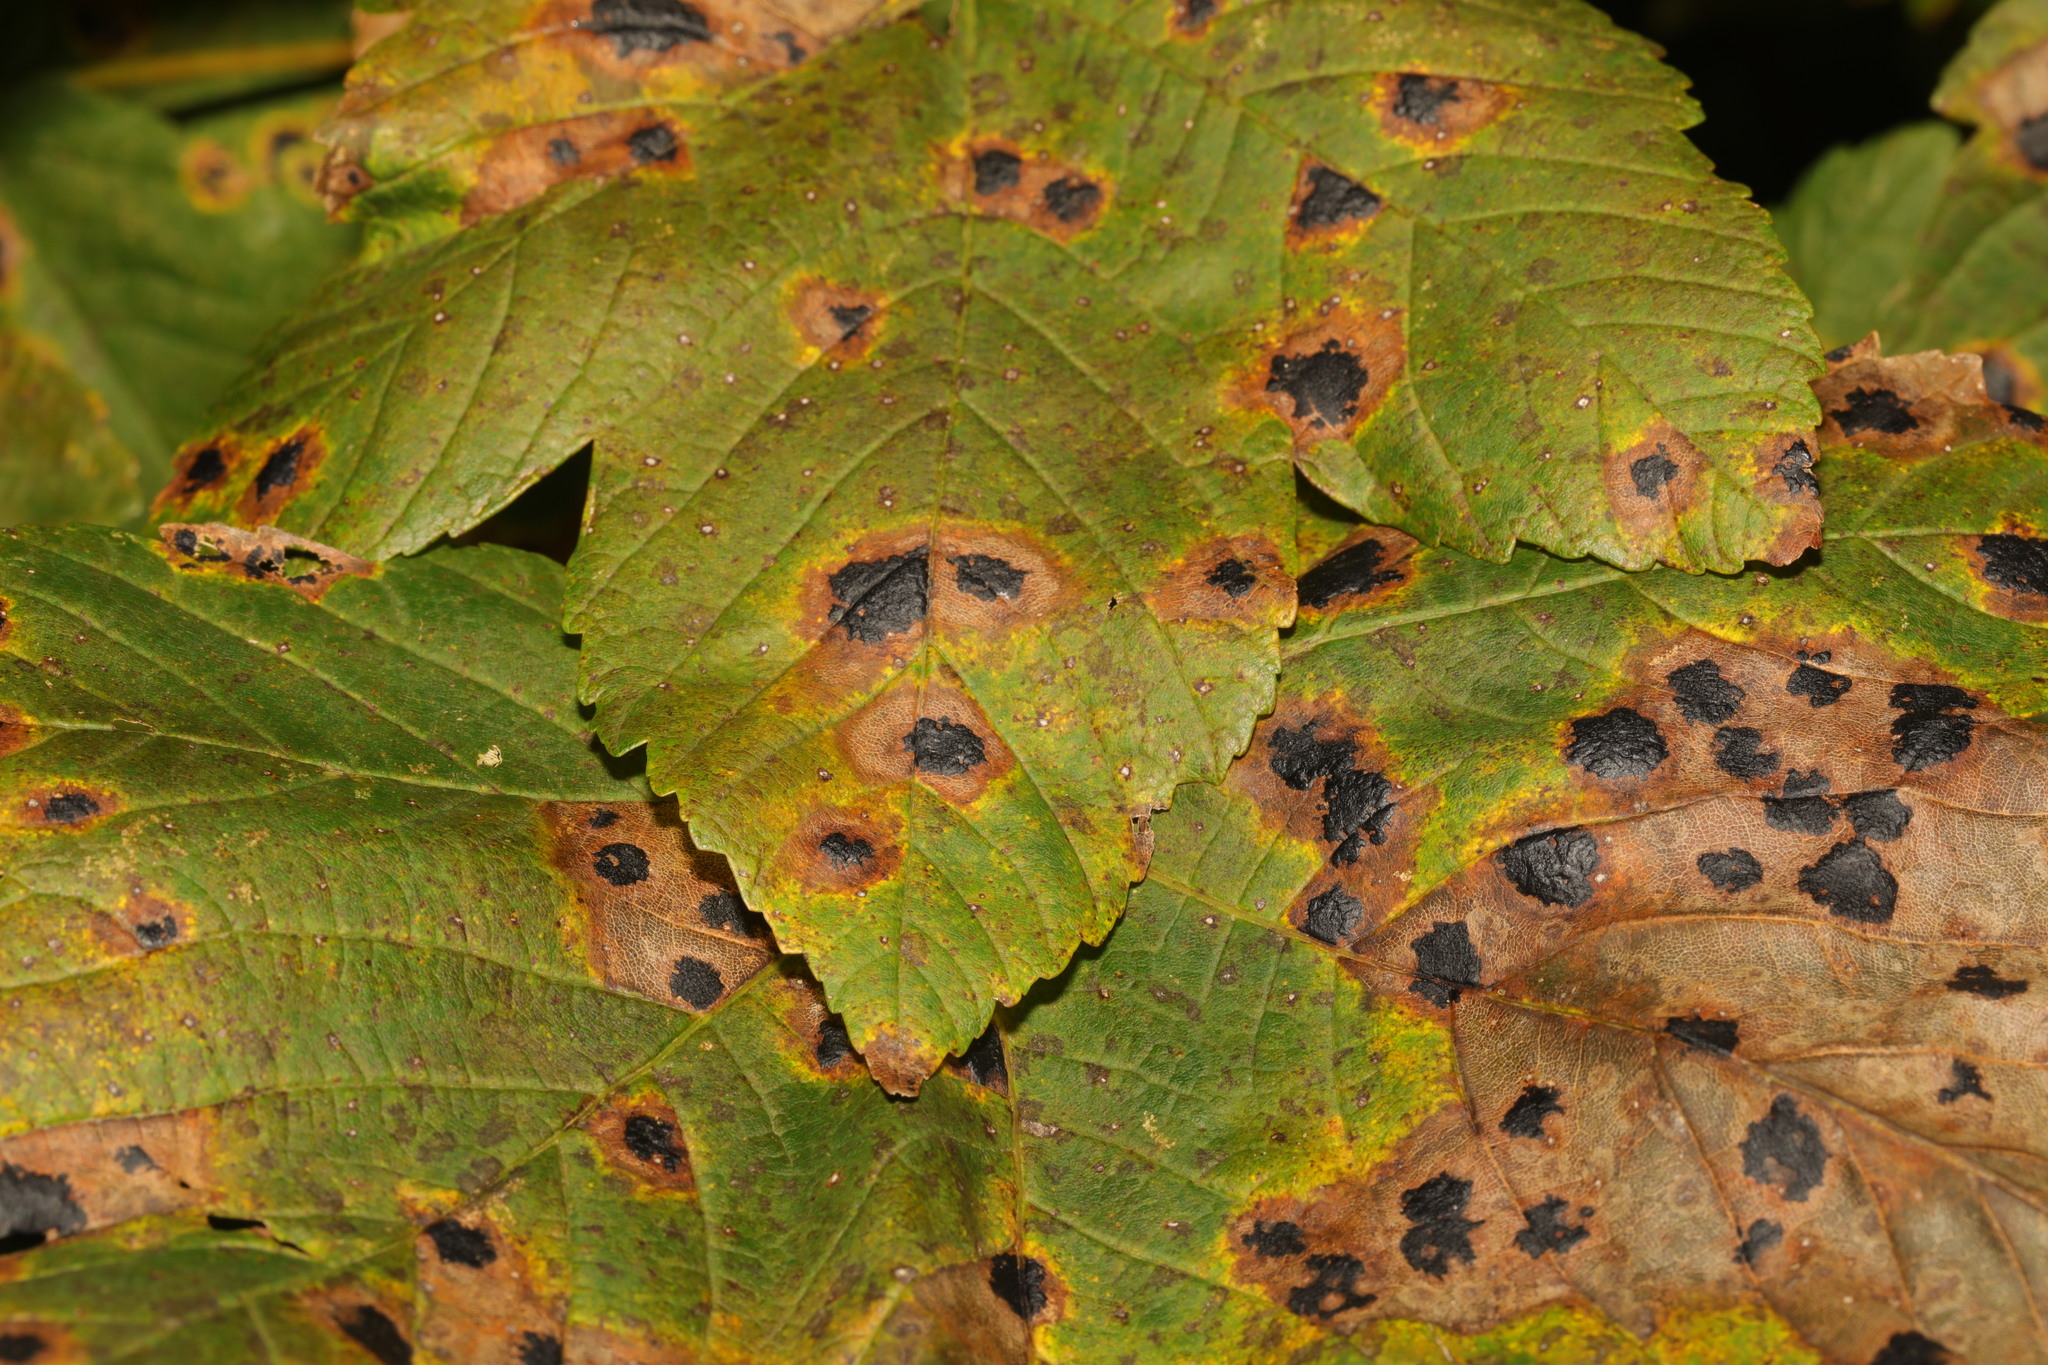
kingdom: Fungi
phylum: Ascomycota
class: Leotiomycetes
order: Rhytismatales
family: Rhytismataceae
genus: Rhytisma
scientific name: Rhytisma acerinum
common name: European tar spot
